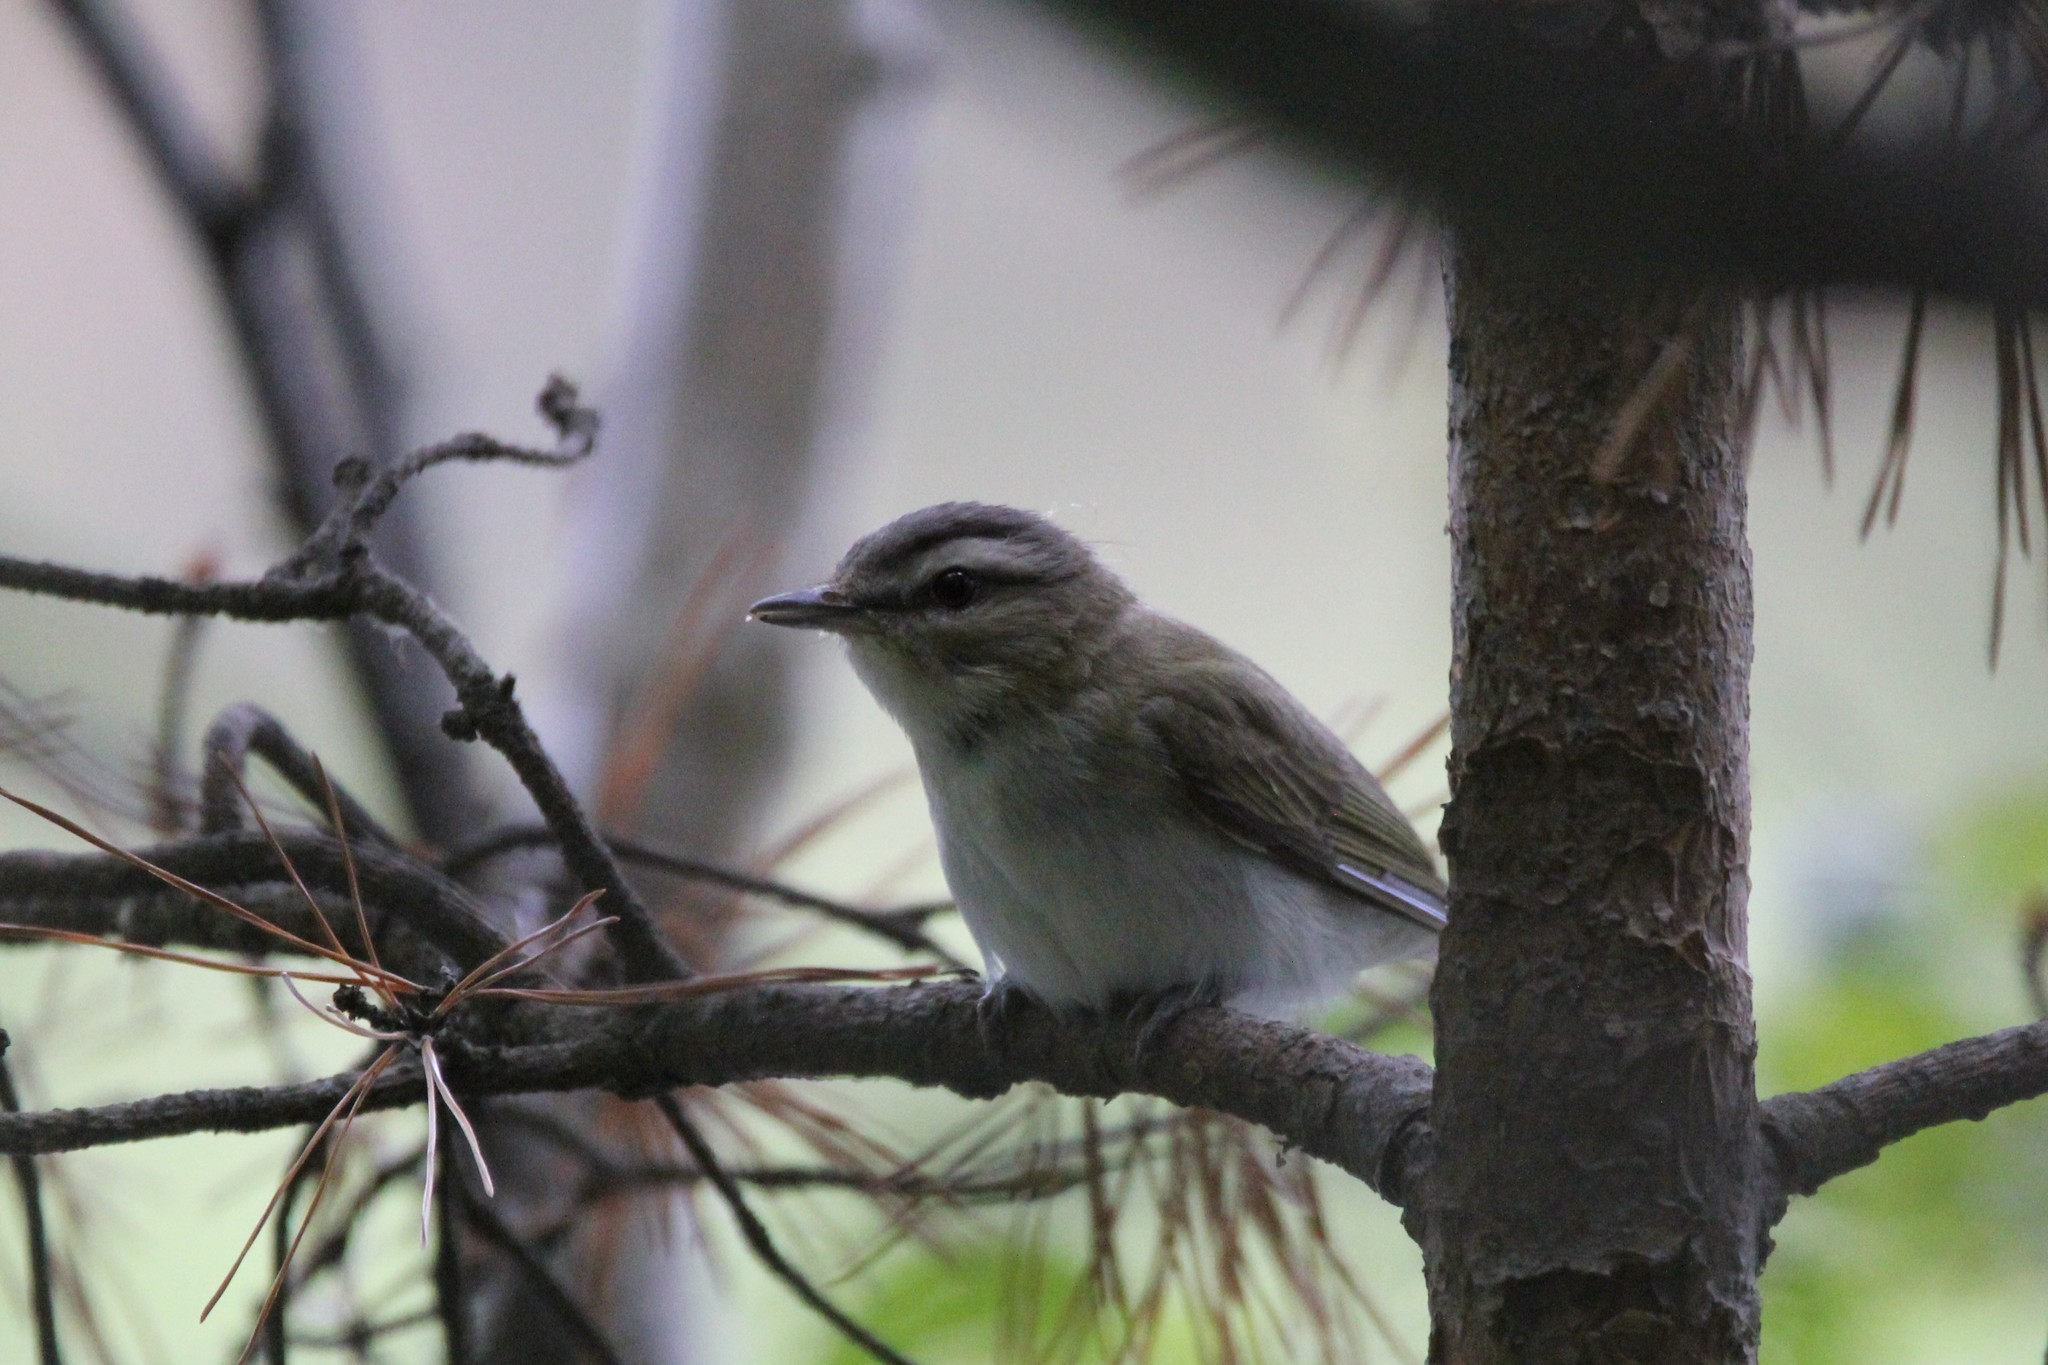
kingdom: Animalia
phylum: Chordata
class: Aves
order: Passeriformes
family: Vireonidae
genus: Vireo
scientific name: Vireo olivaceus
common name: Red-eyed vireo
